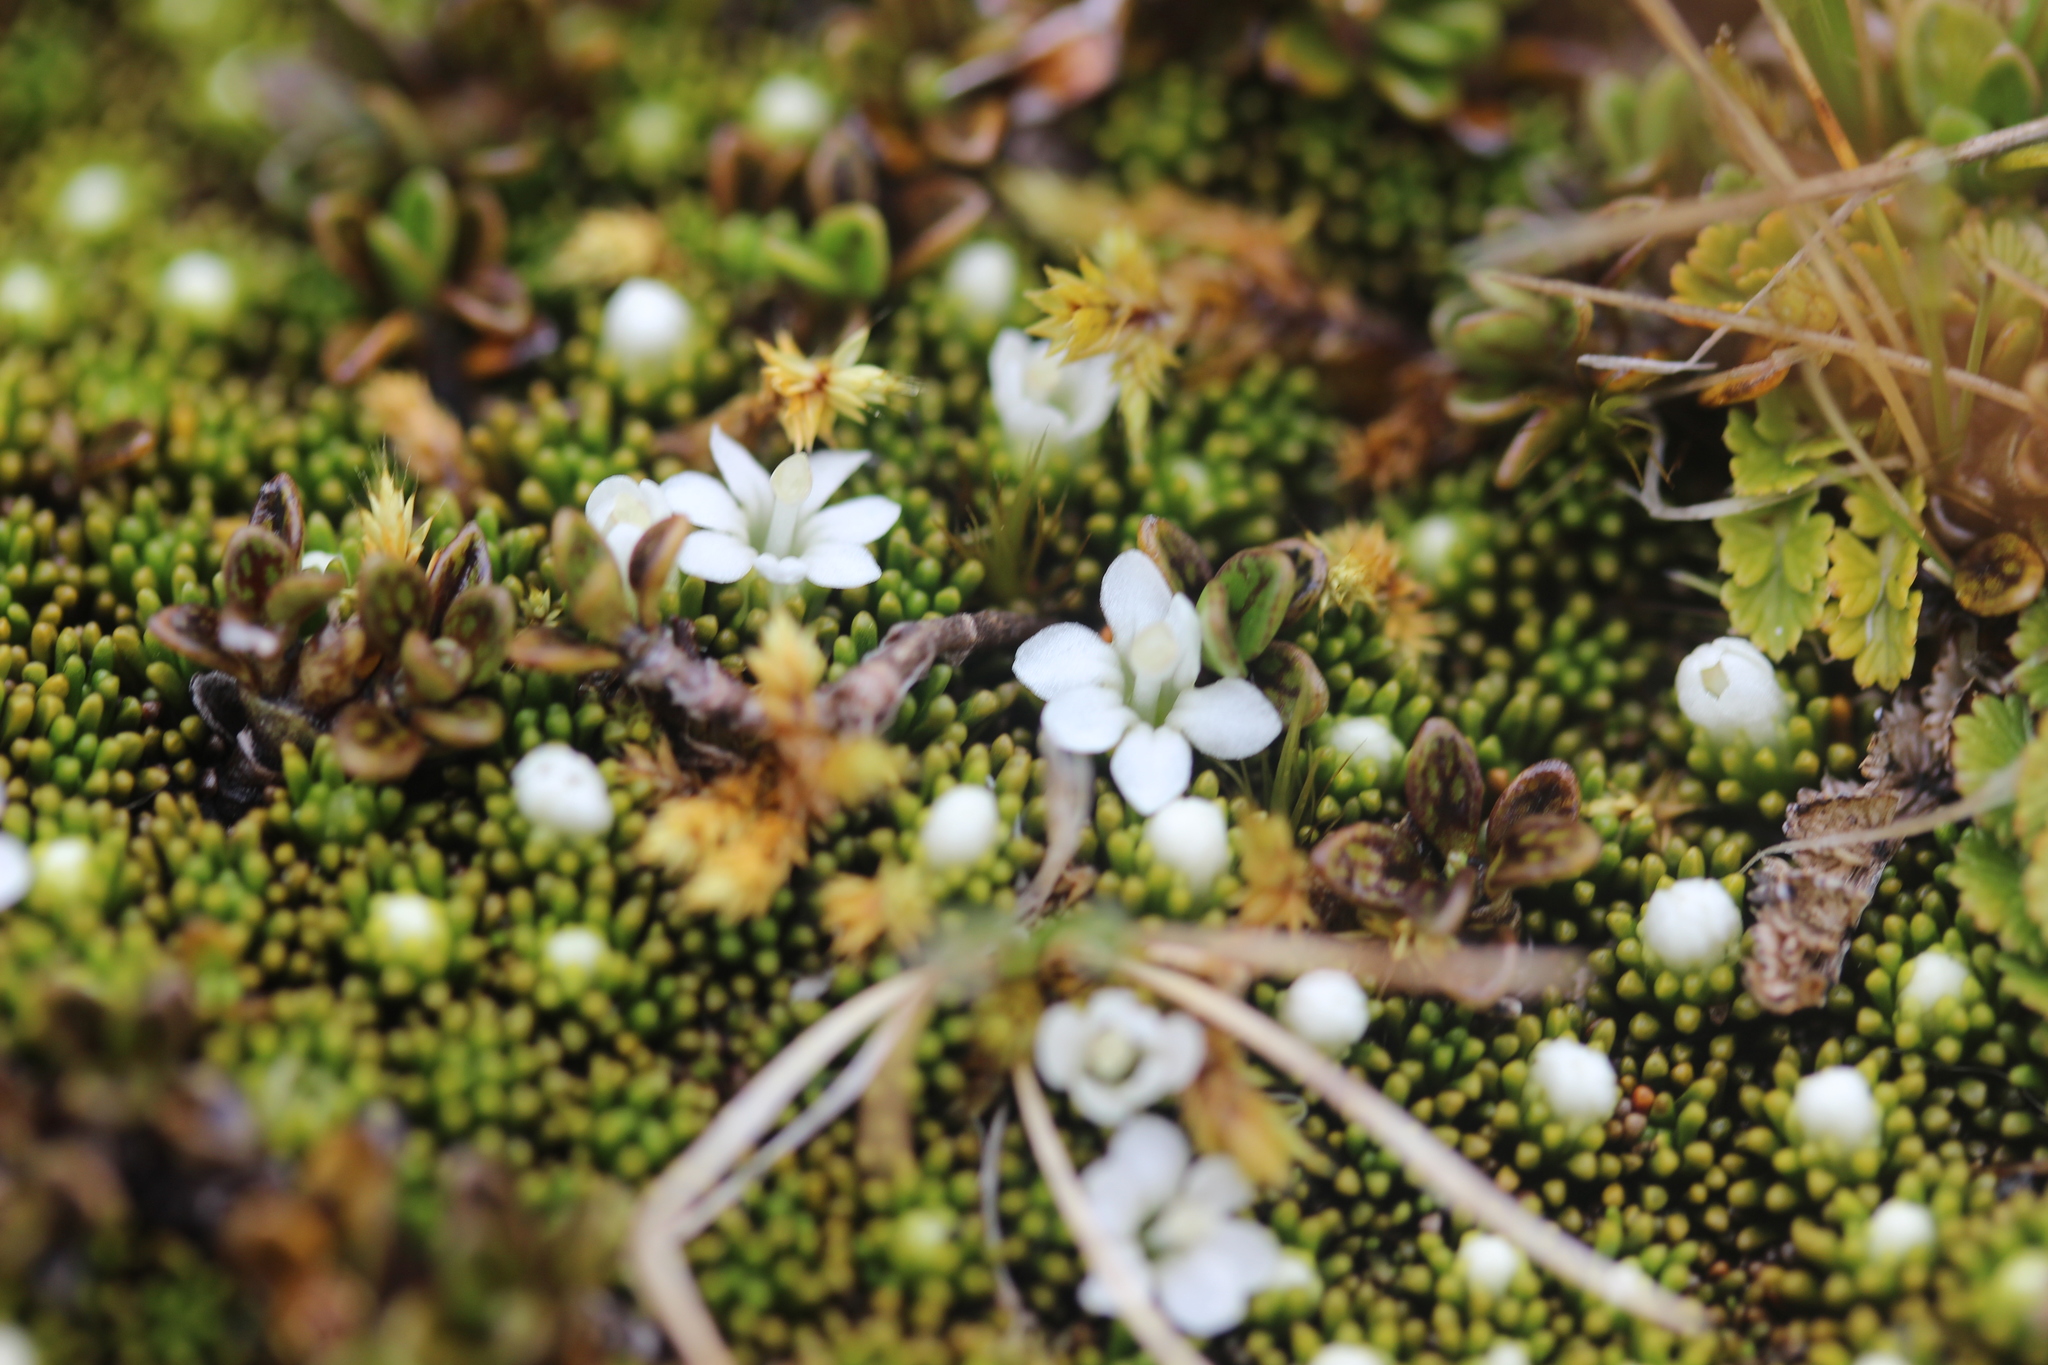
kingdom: Plantae
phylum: Tracheophyta
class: Magnoliopsida
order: Asterales
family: Stylidiaceae
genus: Phyllachne
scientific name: Phyllachne colensoi
